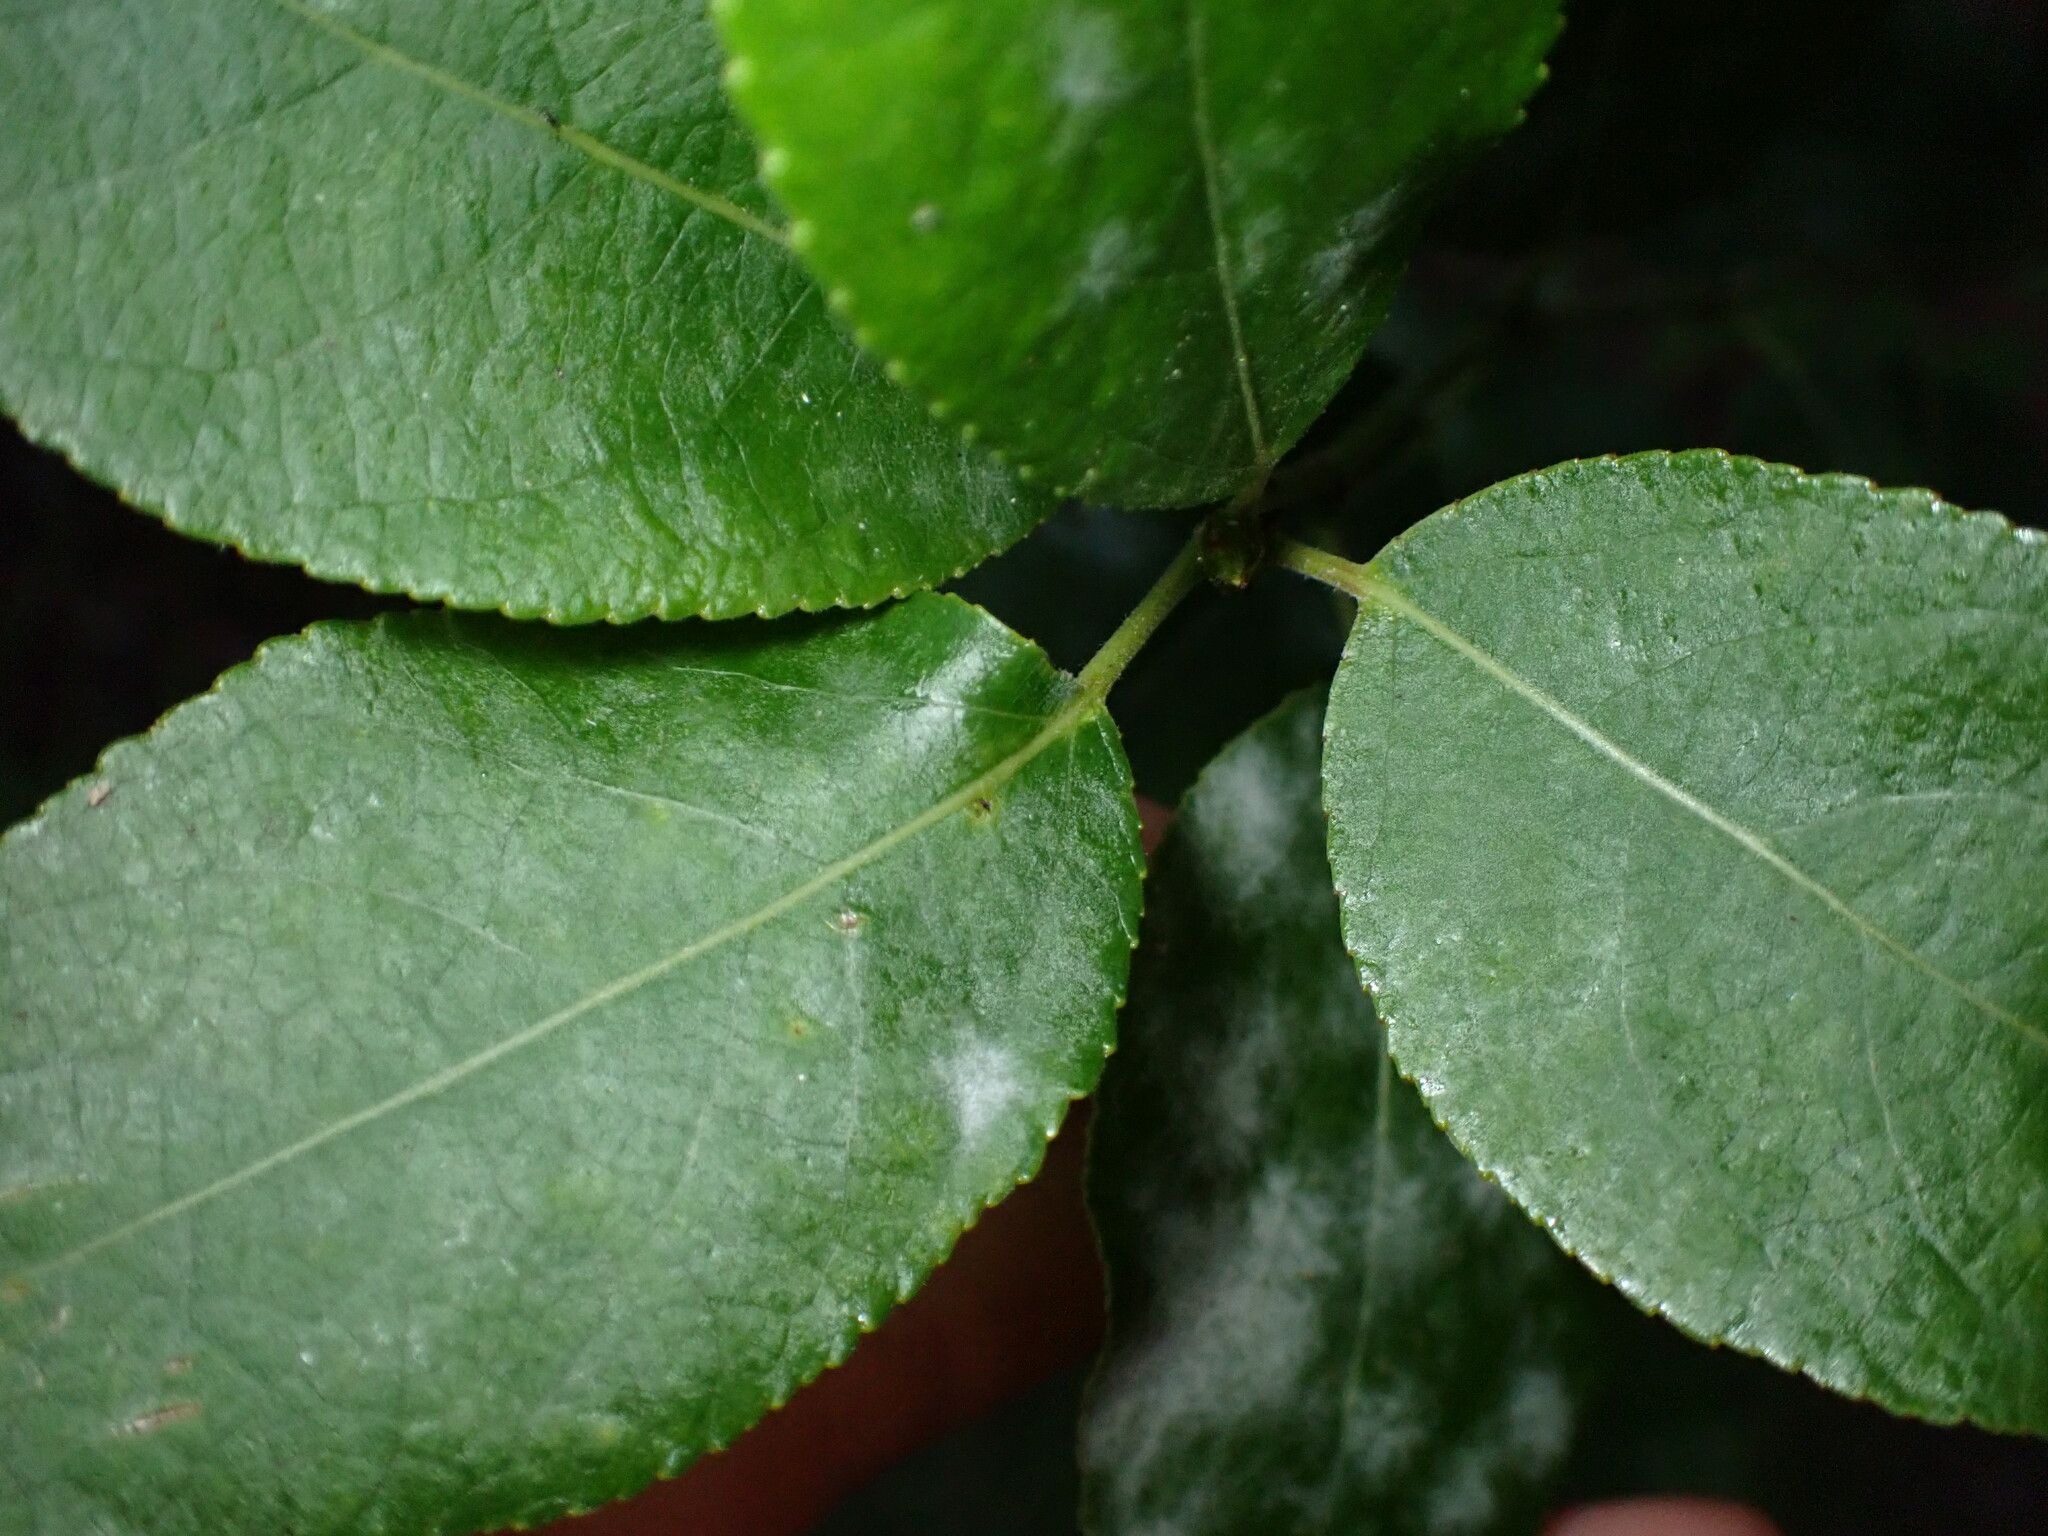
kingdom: Fungi
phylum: Ascomycota
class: Leotiomycetes
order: Helotiales
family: Erysiphaceae
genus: Erysiphe
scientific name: Erysiphe adunca
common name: Willow mildew
